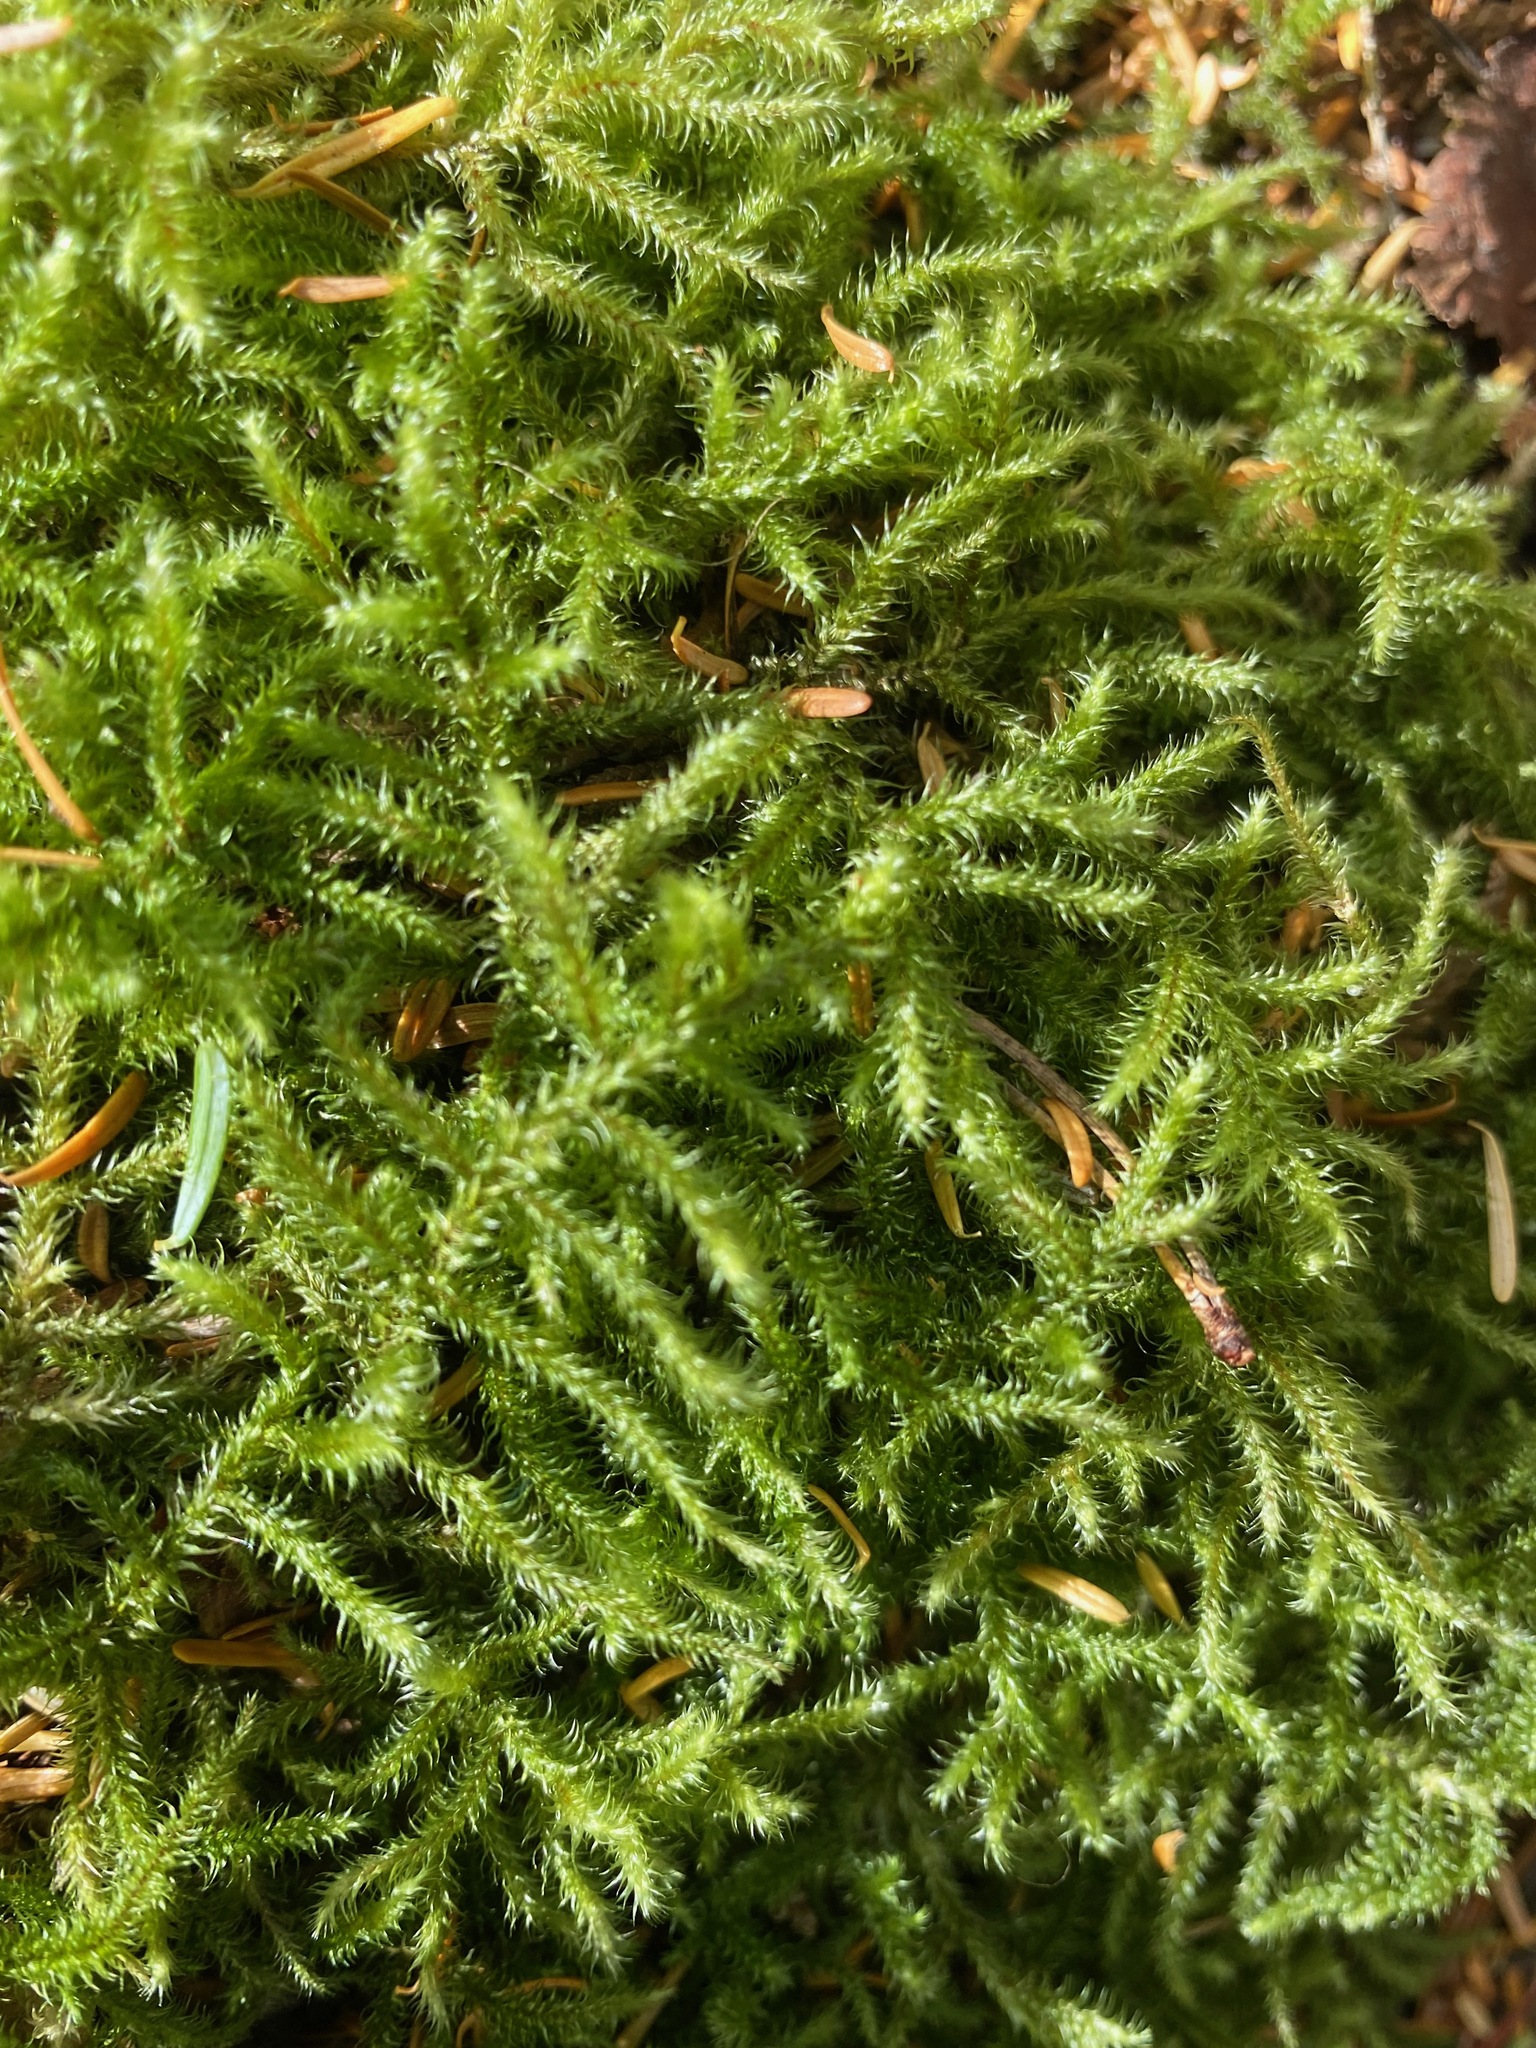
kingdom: Plantae
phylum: Bryophyta
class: Bryopsida
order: Hypnales
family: Hylocomiaceae
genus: Rhytidiadelphus
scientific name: Rhytidiadelphus loreus
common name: Lanky moss
